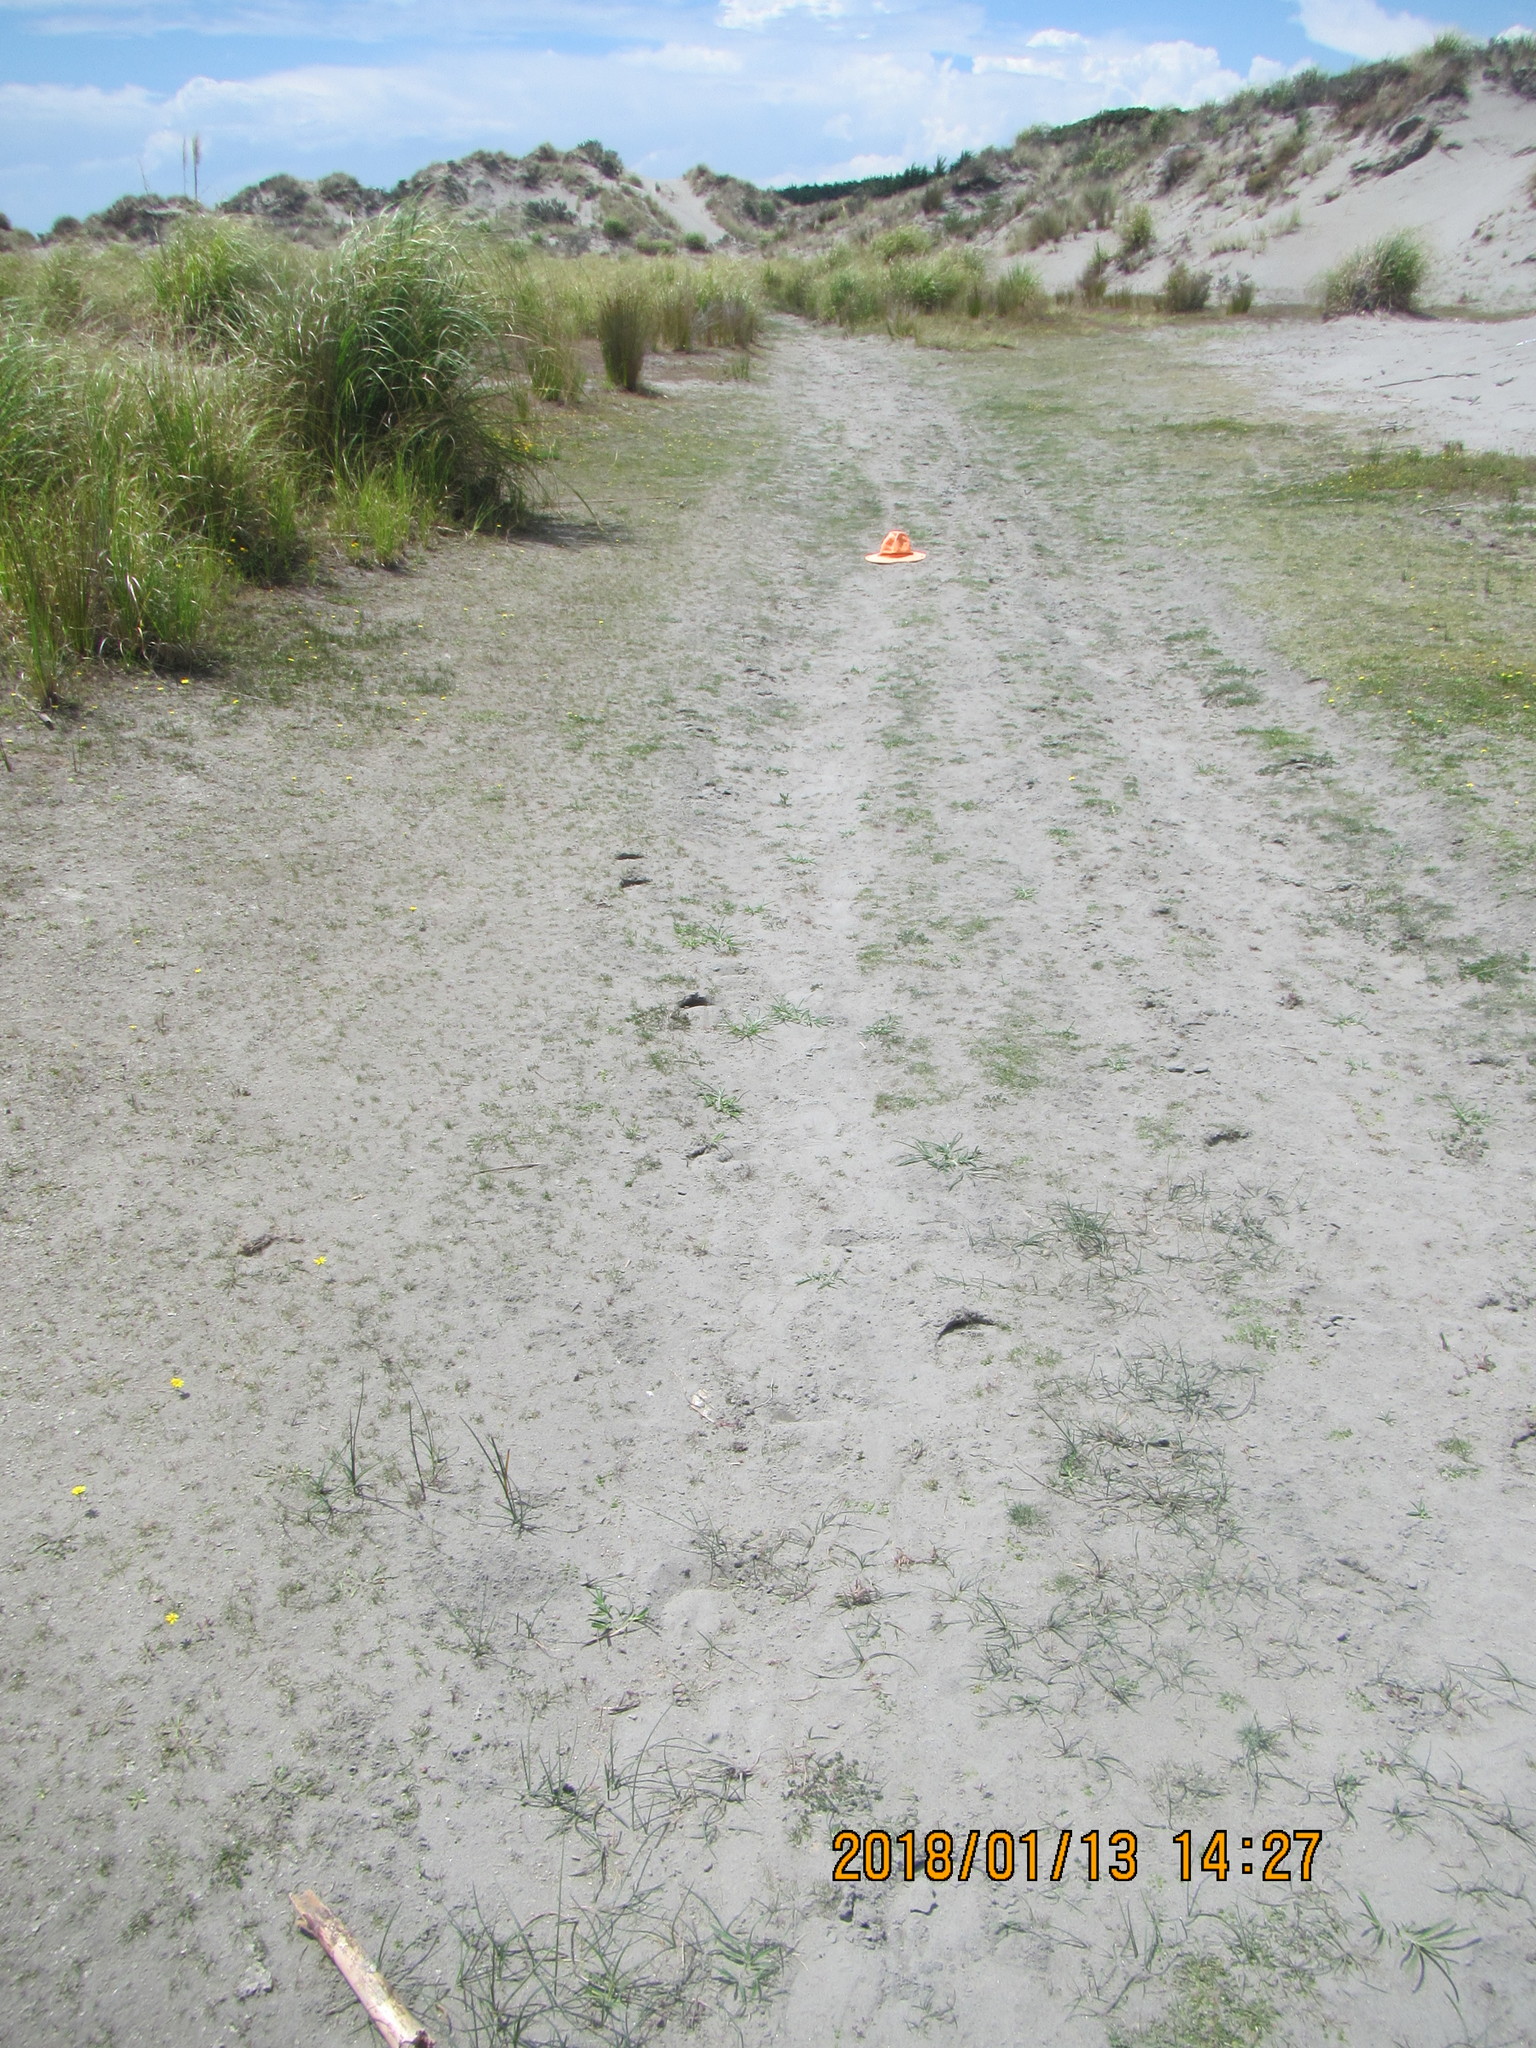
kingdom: Plantae
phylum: Tracheophyta
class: Magnoliopsida
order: Lamiales
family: Scrophulariaceae
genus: Limosella
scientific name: Limosella australis
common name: Welsh mudwort
